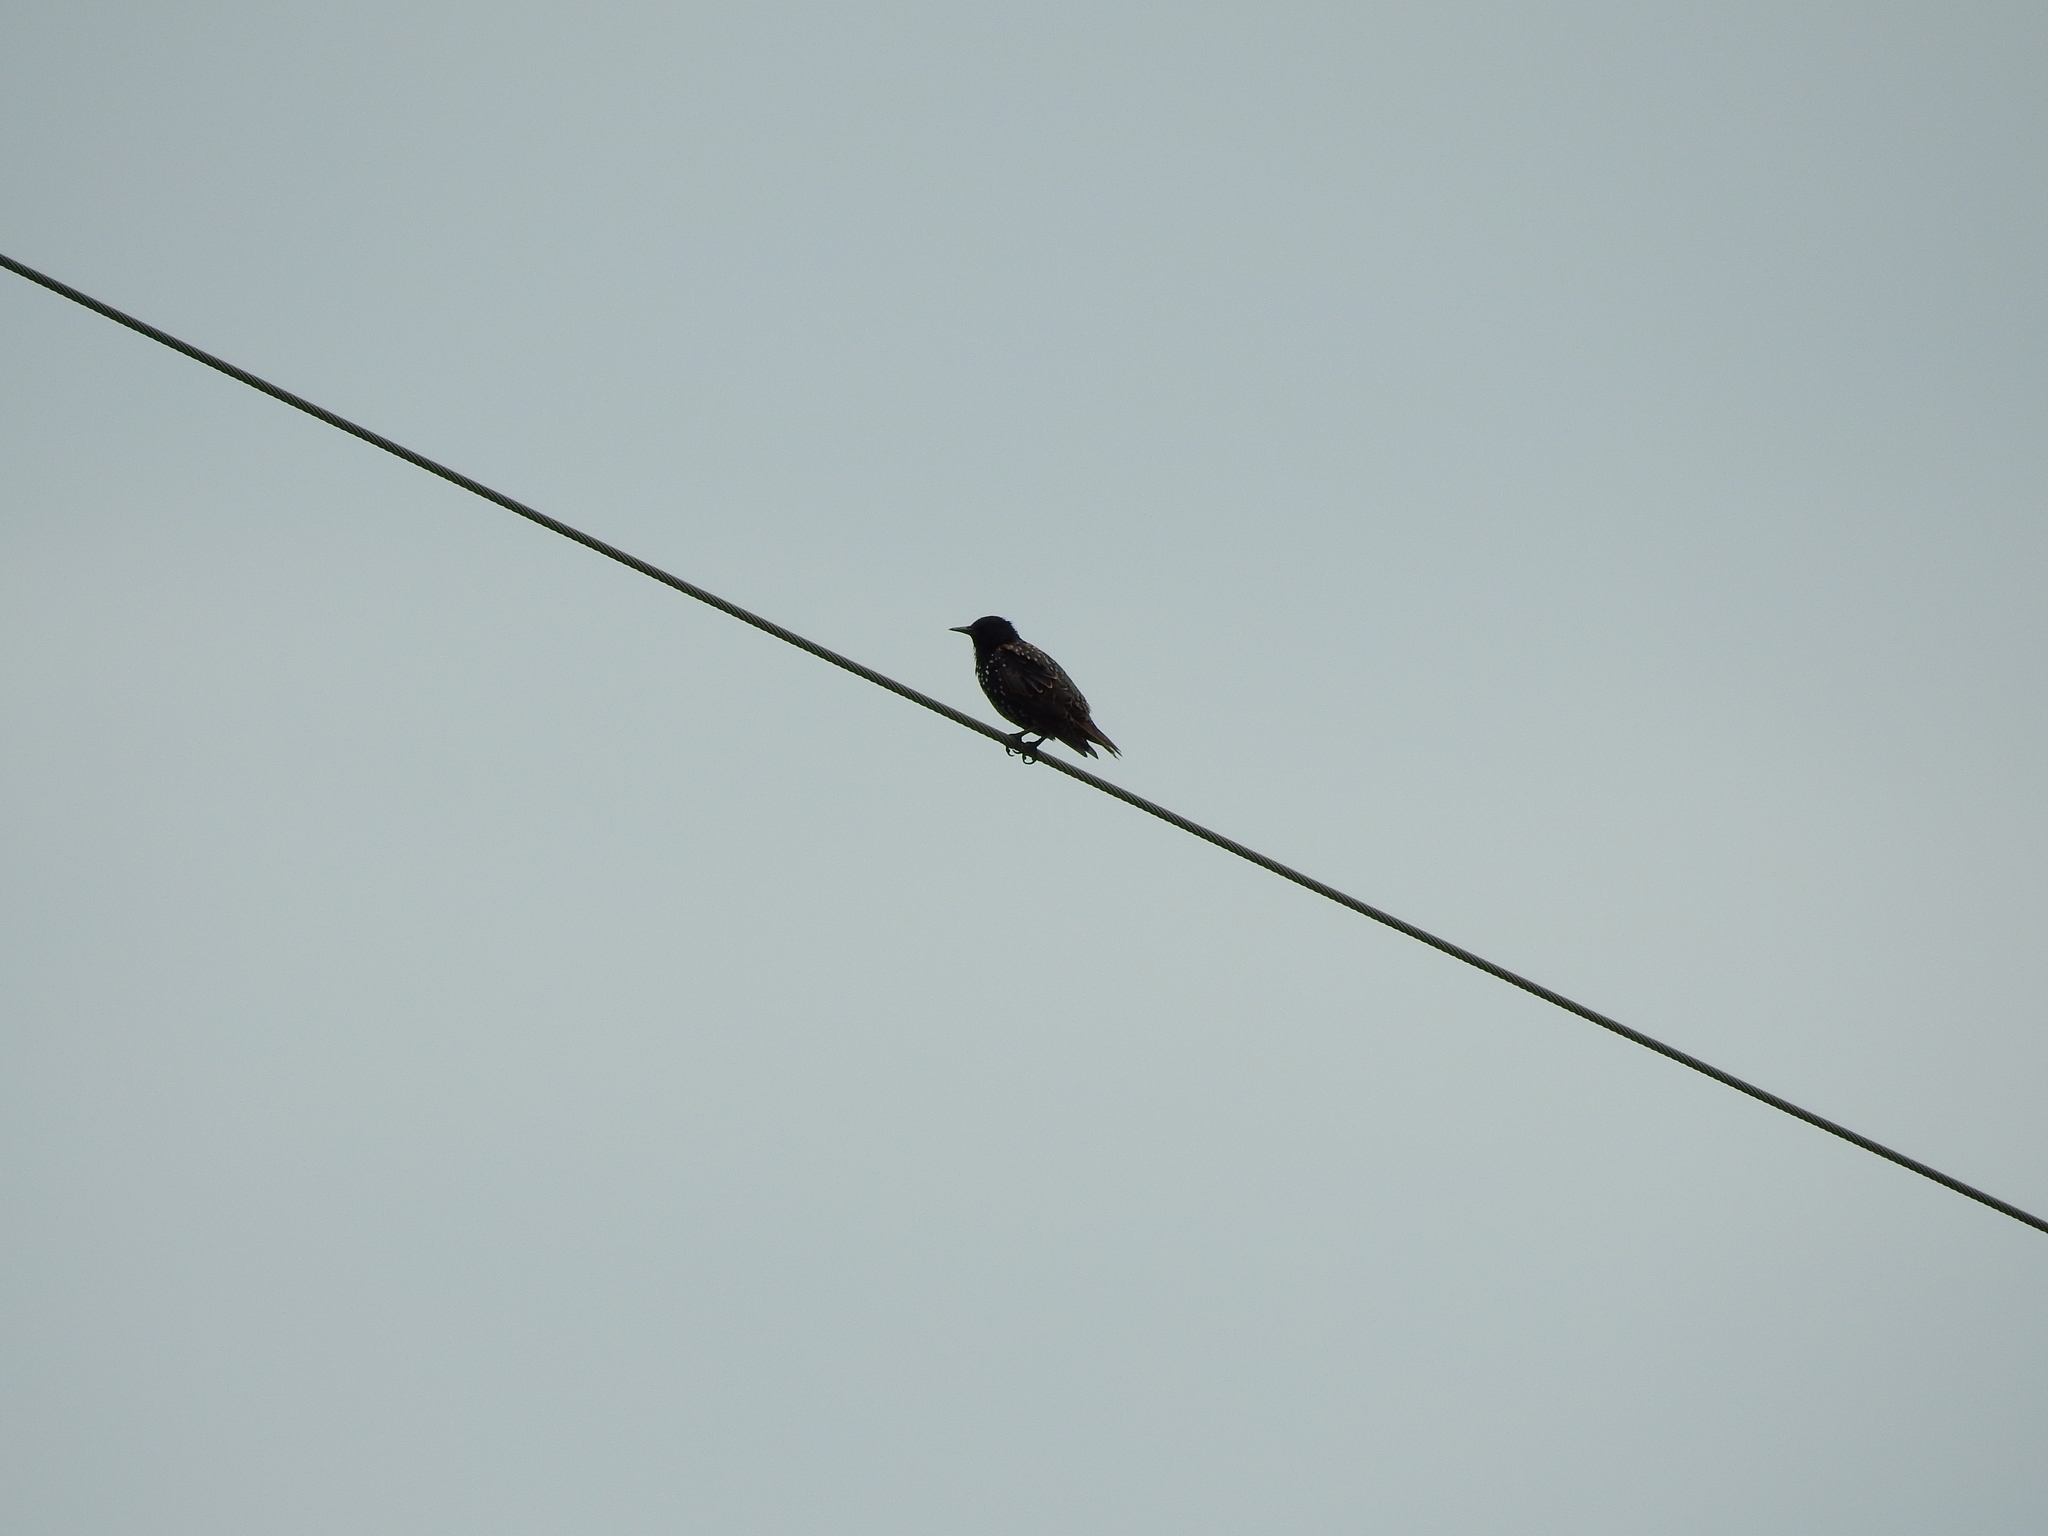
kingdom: Animalia
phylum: Chordata
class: Aves
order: Passeriformes
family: Sturnidae
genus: Sturnus
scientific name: Sturnus vulgaris
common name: Common starling
